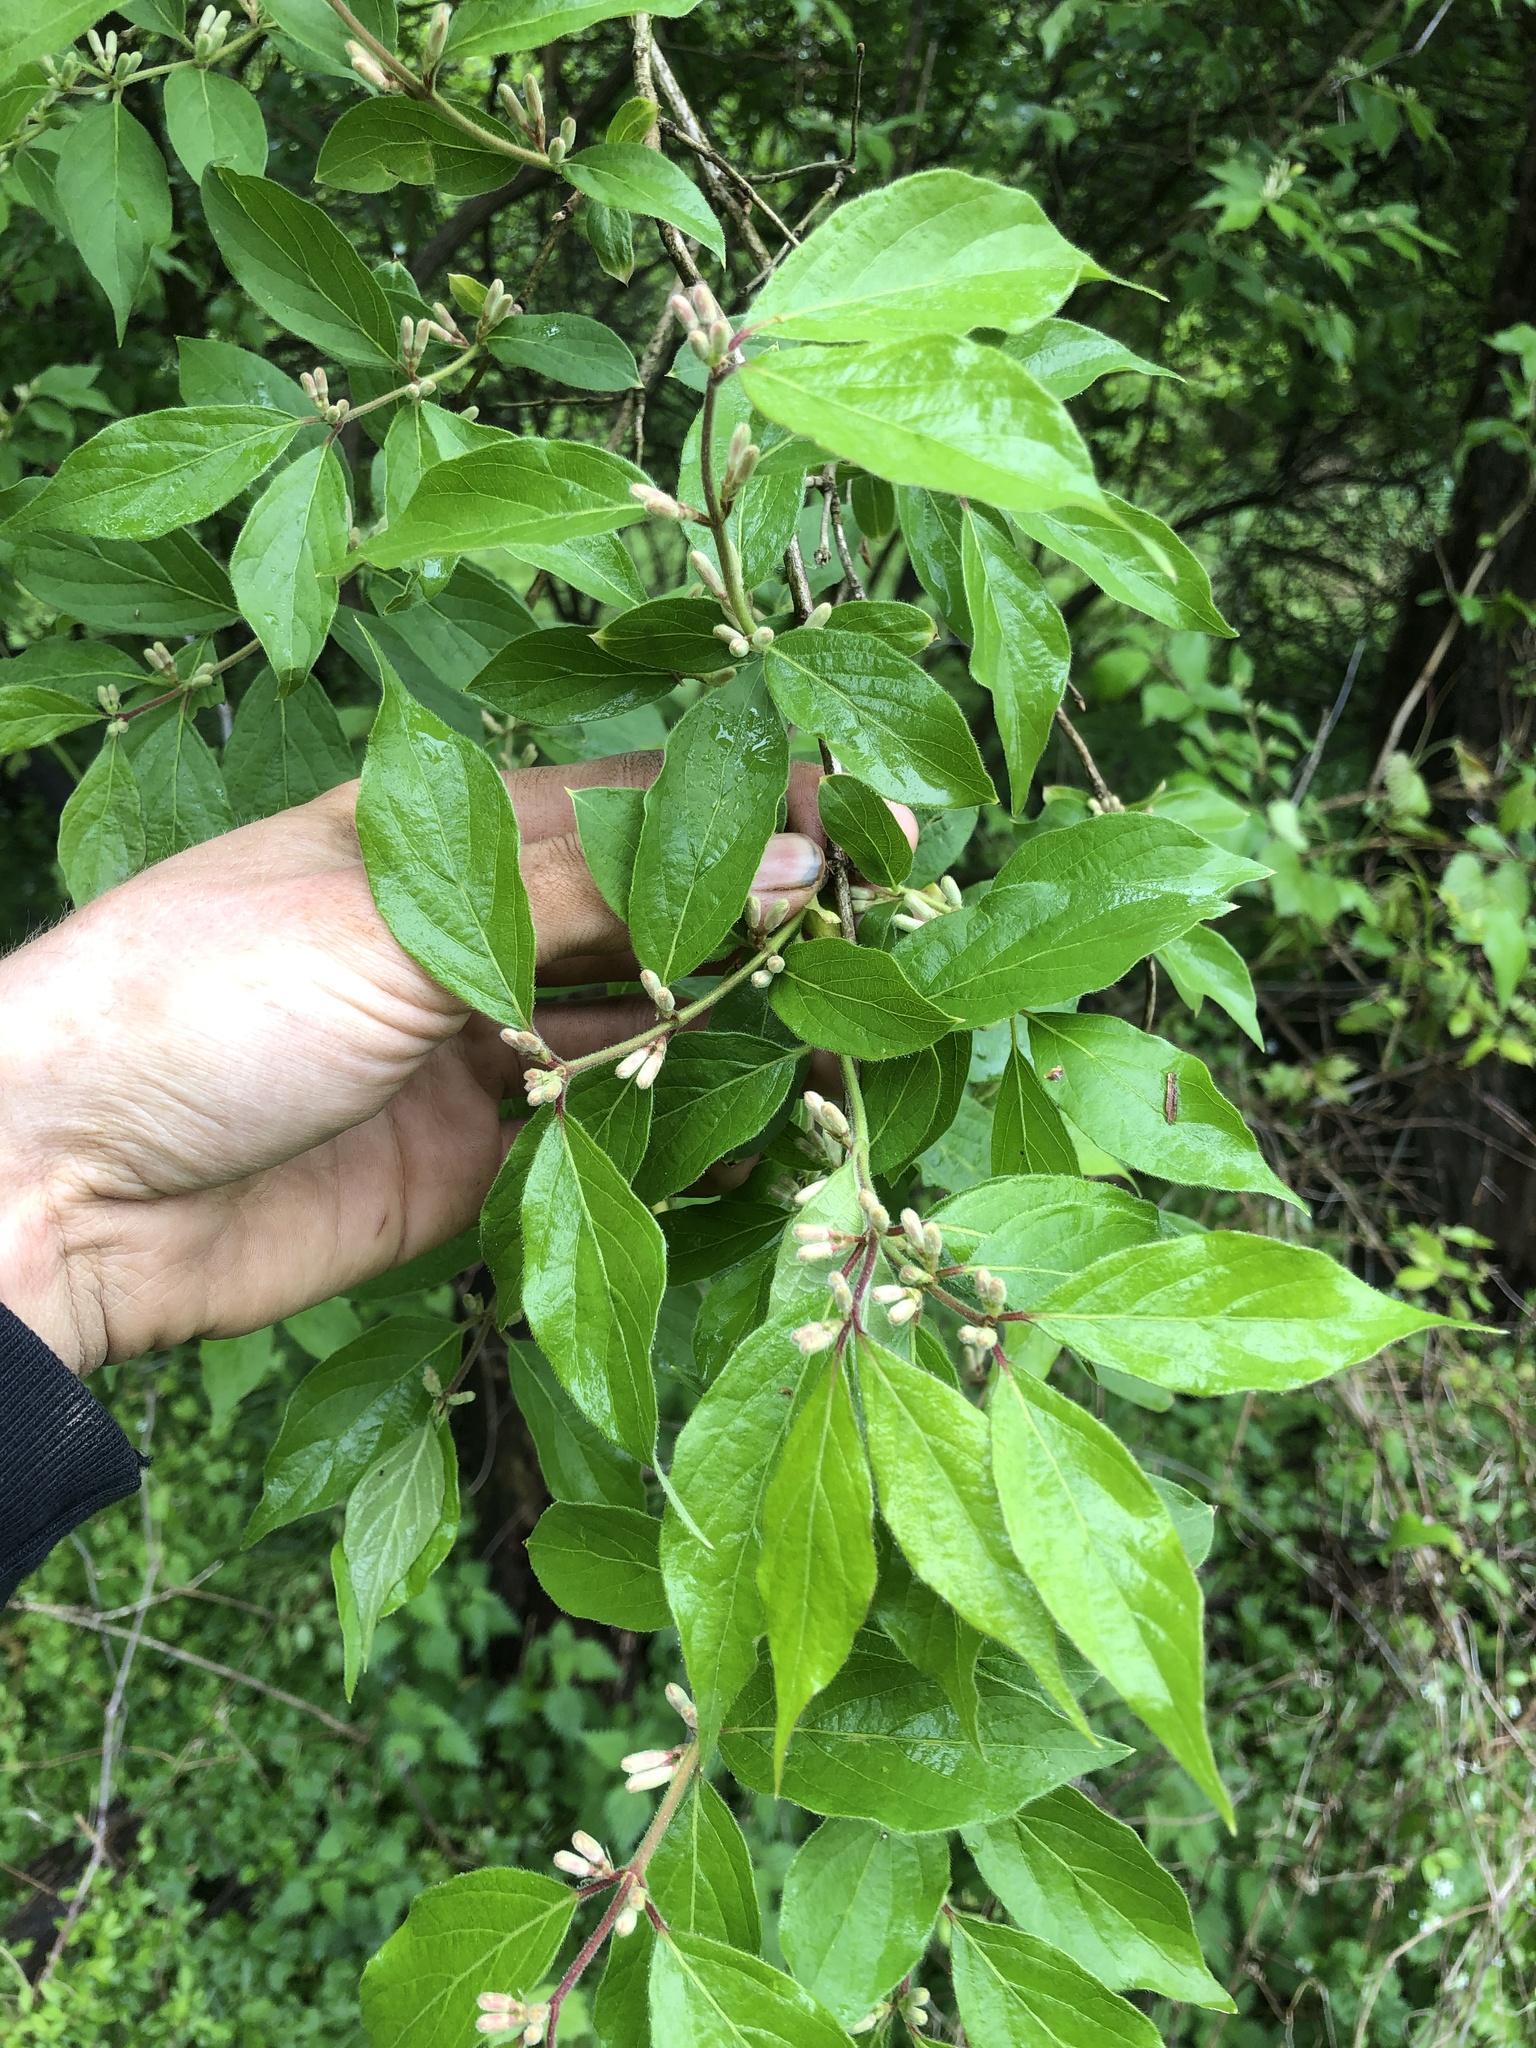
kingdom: Plantae
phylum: Tracheophyta
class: Magnoliopsida
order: Dipsacales
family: Caprifoliaceae
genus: Lonicera
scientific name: Lonicera maackii
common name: Amur honeysuckle
